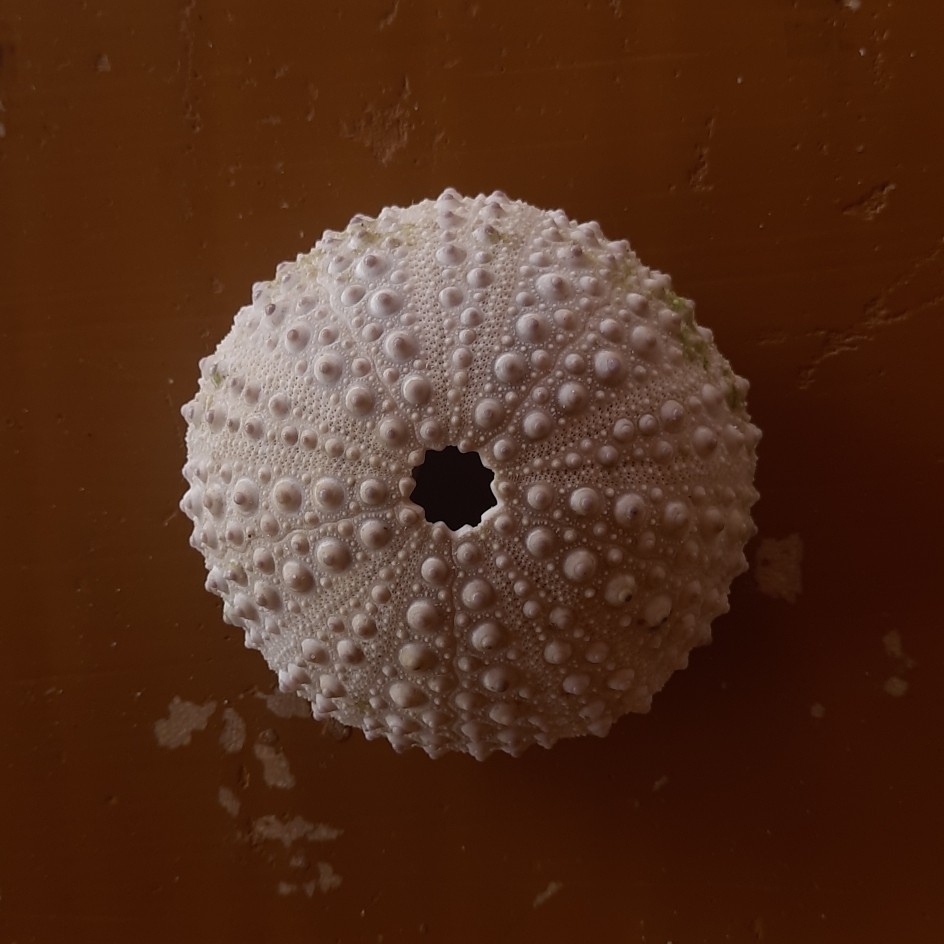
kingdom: Animalia
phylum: Echinodermata
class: Echinoidea
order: Stomopneustoida
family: Stomopneustidae
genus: Stomopneustes
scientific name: Stomopneustes variolaris
